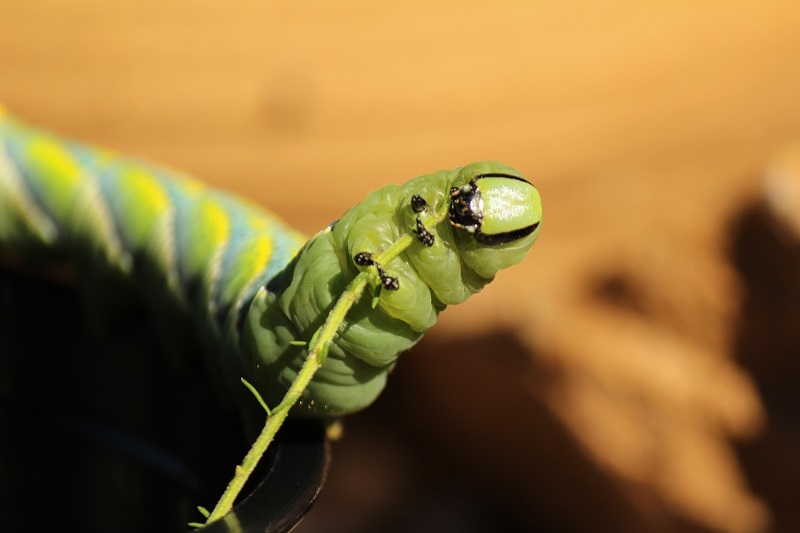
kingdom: Animalia
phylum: Arthropoda
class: Insecta
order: Lepidoptera
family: Sphingidae
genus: Acherontia
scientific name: Acherontia atropos
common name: Death's-head hawk moth
